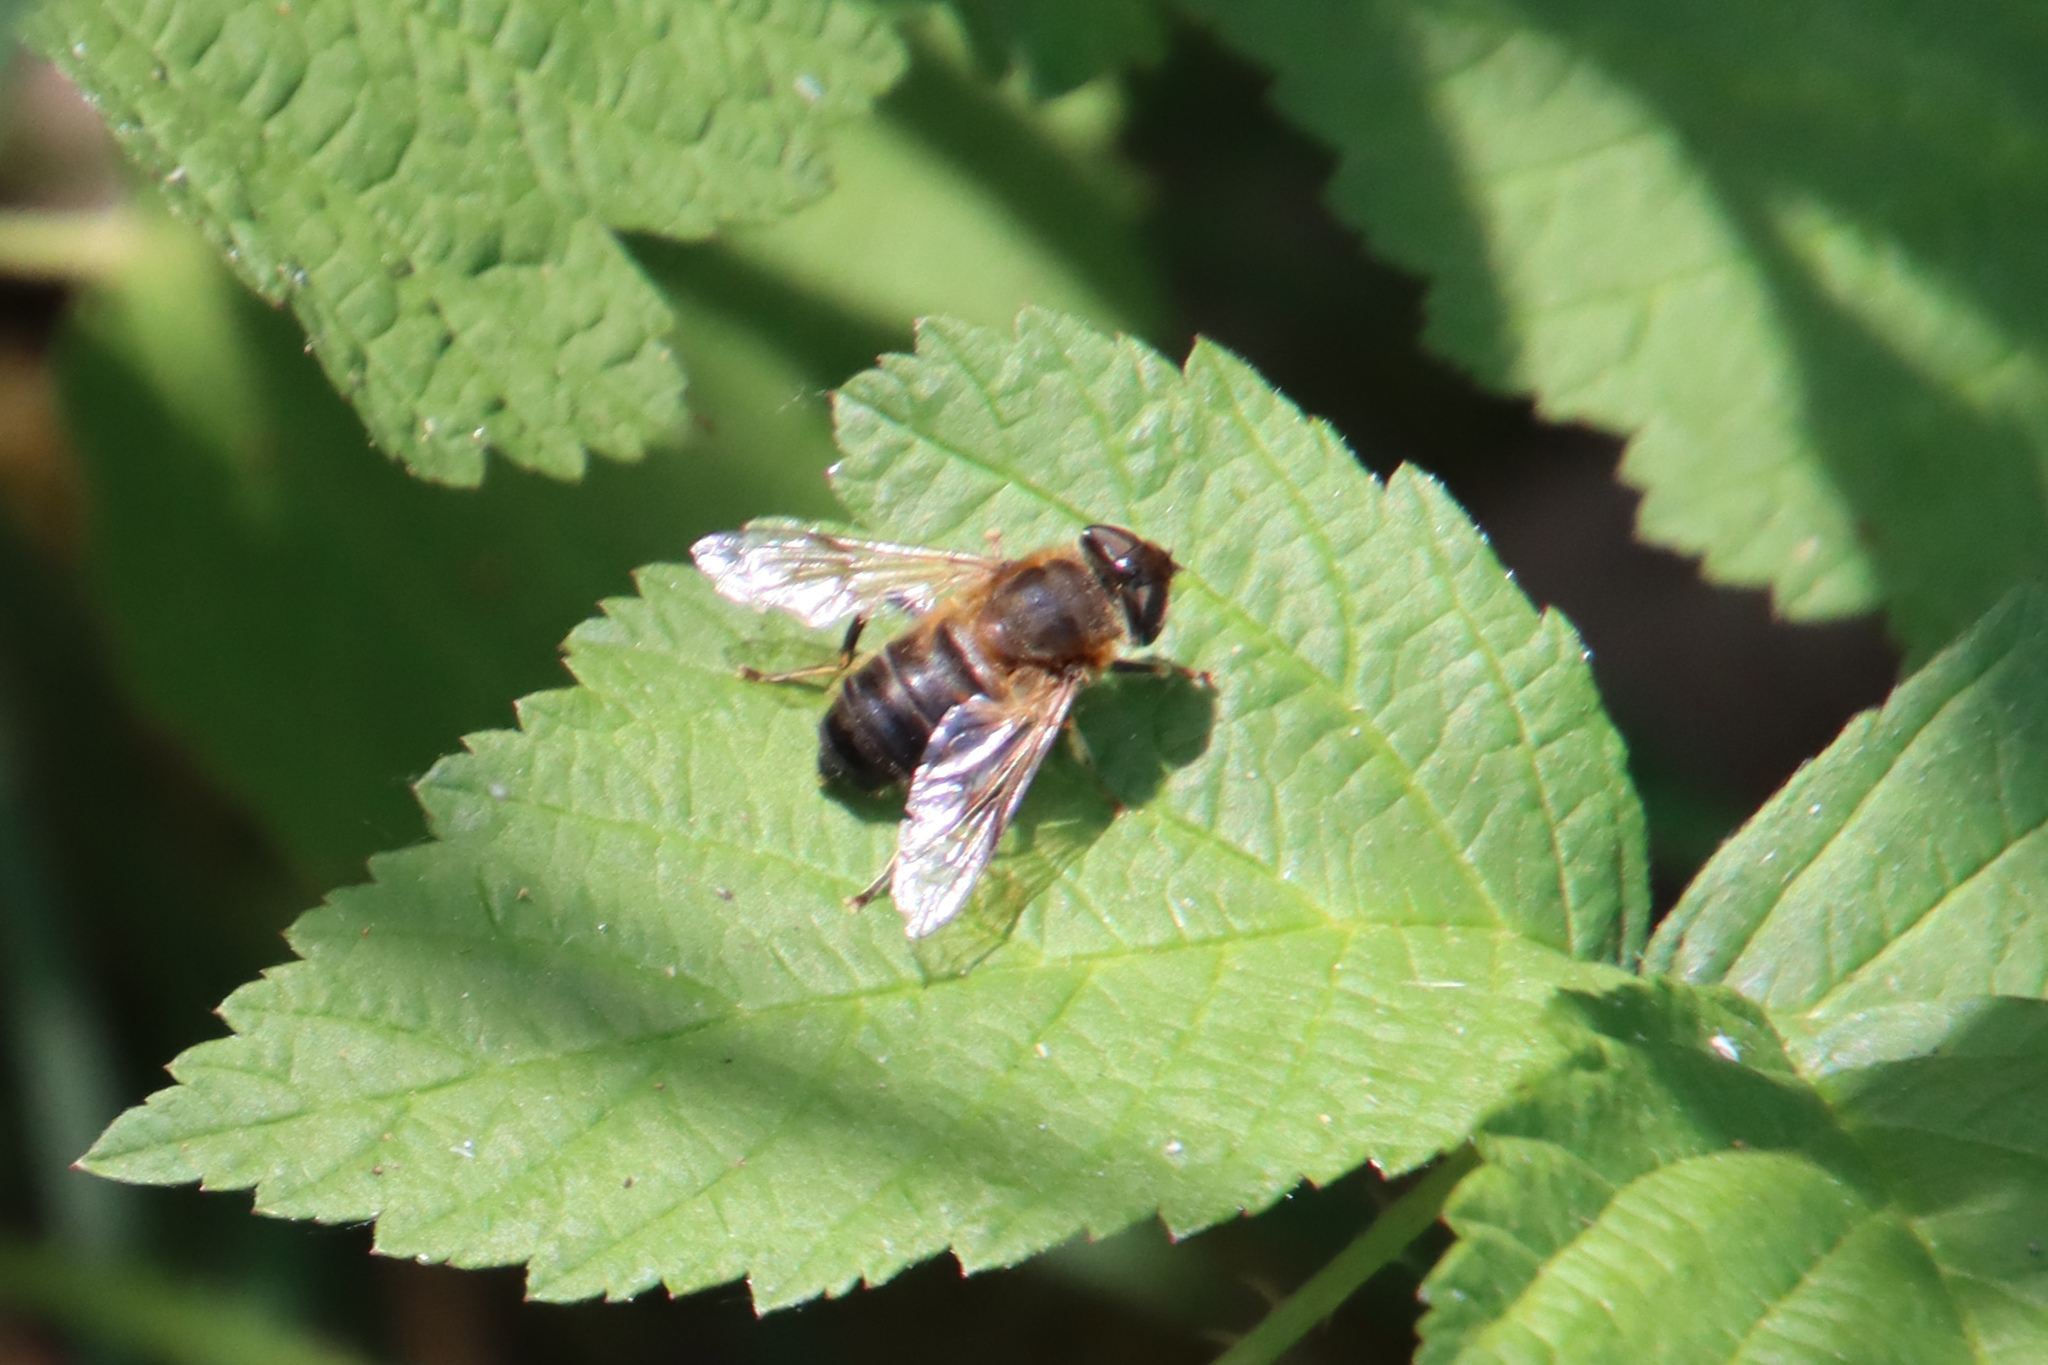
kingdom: Animalia
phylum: Arthropoda
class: Insecta
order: Diptera
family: Syrphidae
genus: Eristalis
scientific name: Eristalis tenax
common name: Drone fly
